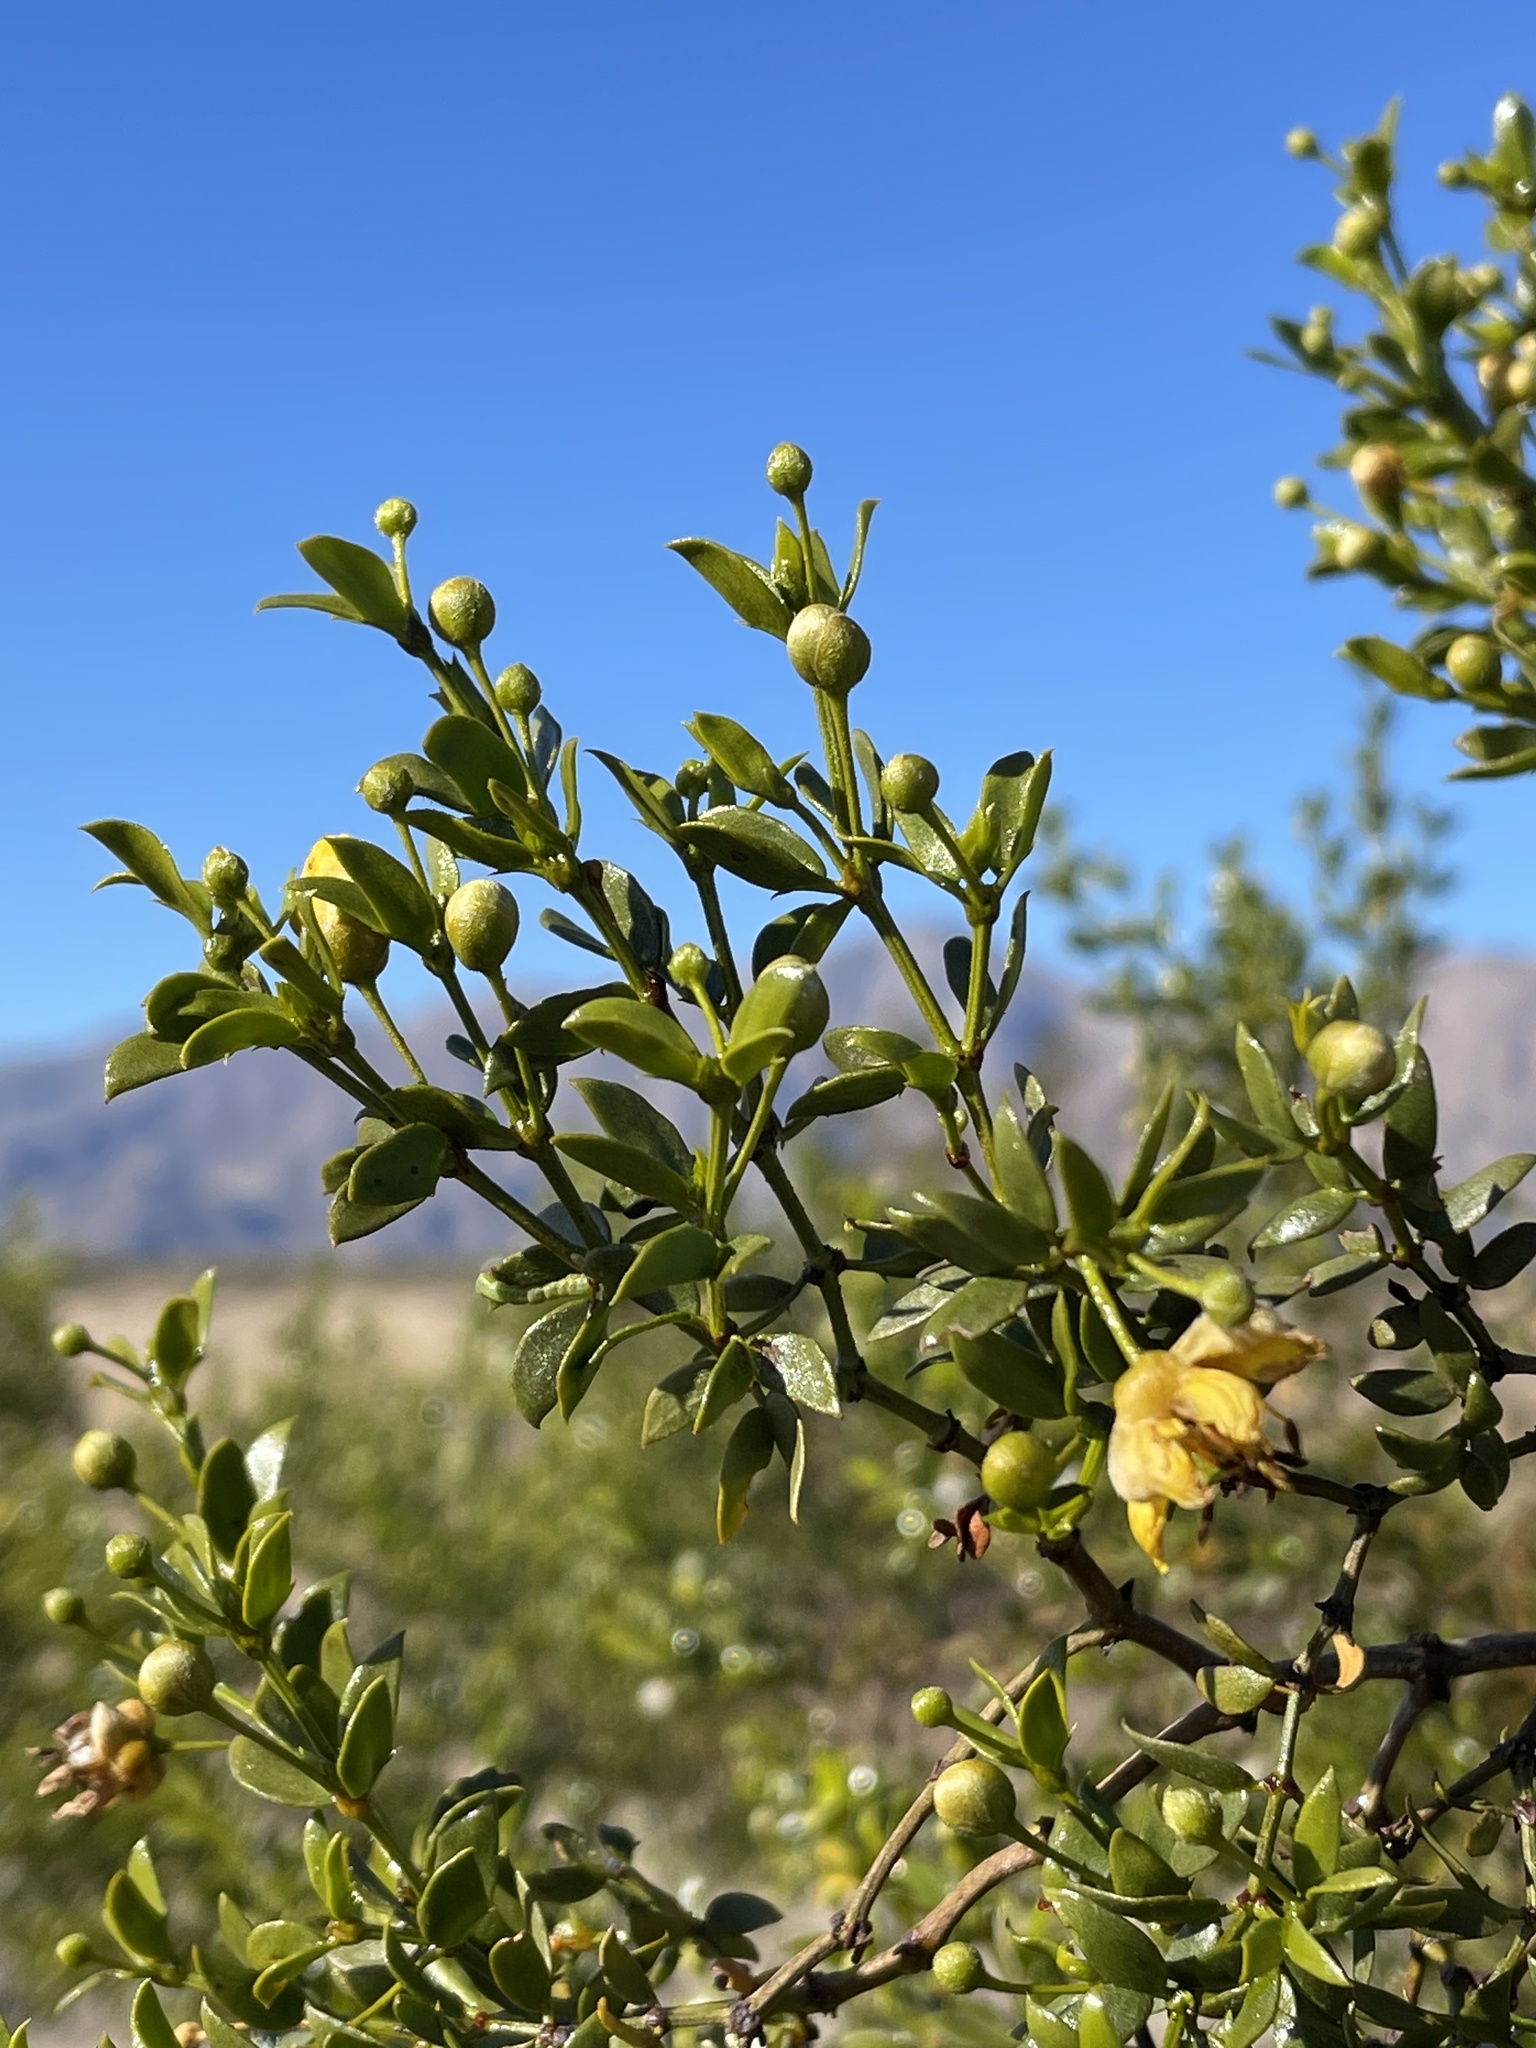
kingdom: Plantae
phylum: Tracheophyta
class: Magnoliopsida
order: Zygophyllales
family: Zygophyllaceae
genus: Larrea
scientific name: Larrea tridentata
